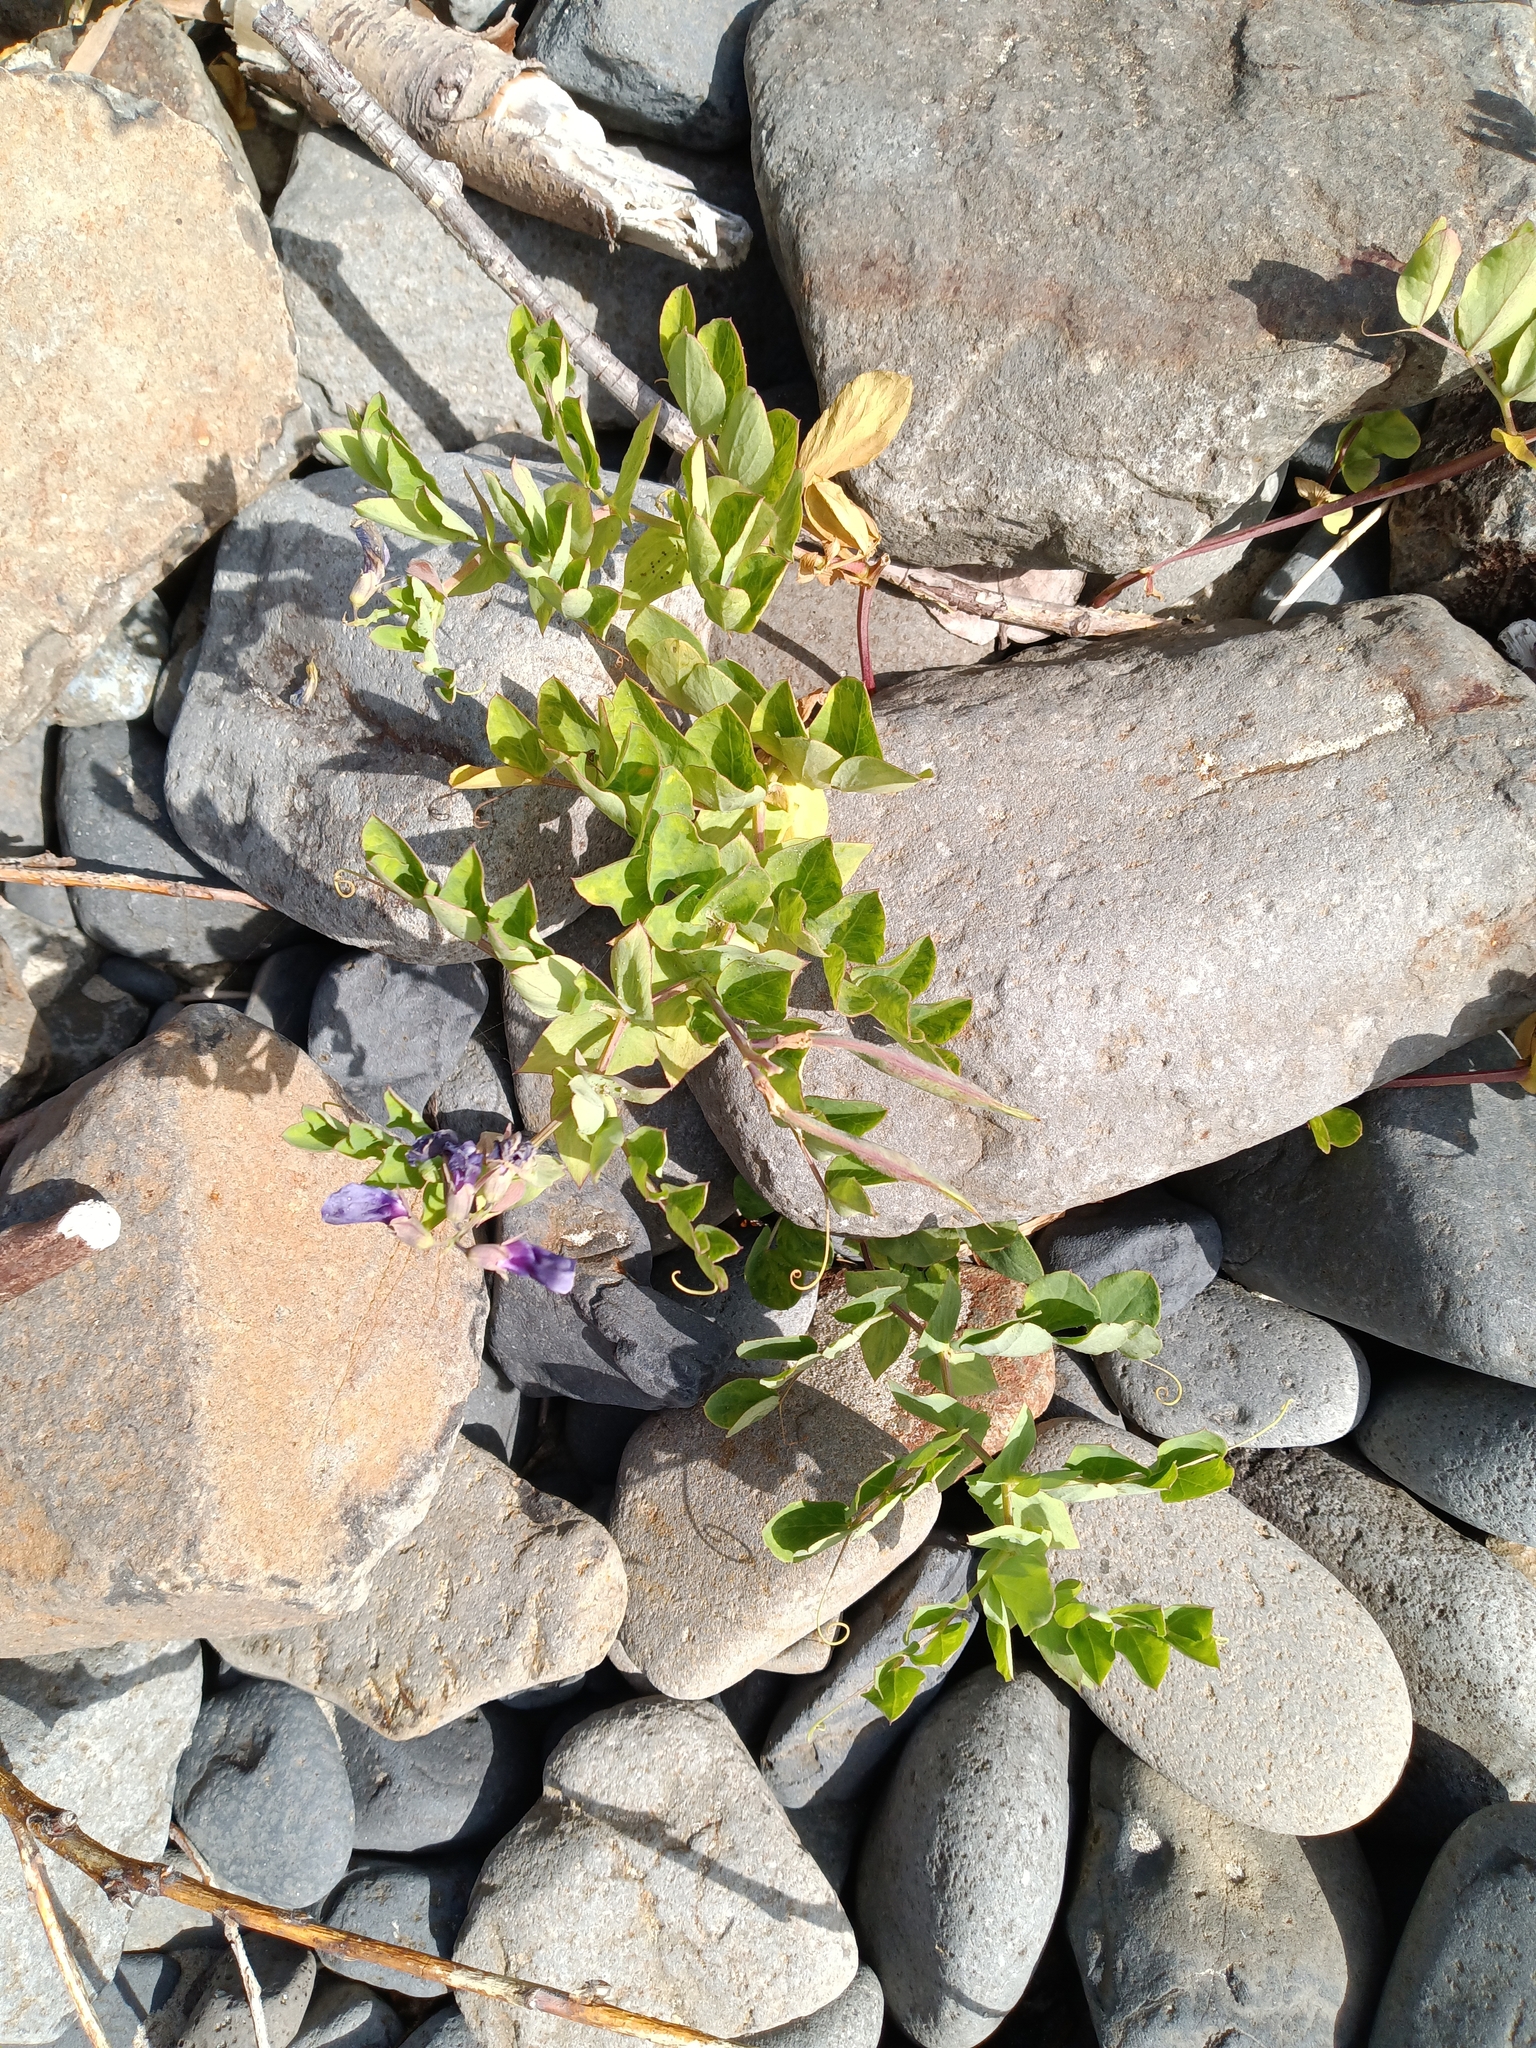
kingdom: Plantae
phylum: Tracheophyta
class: Magnoliopsida
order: Fabales
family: Fabaceae
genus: Lathyrus
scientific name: Lathyrus japonicus
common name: Sea pea
